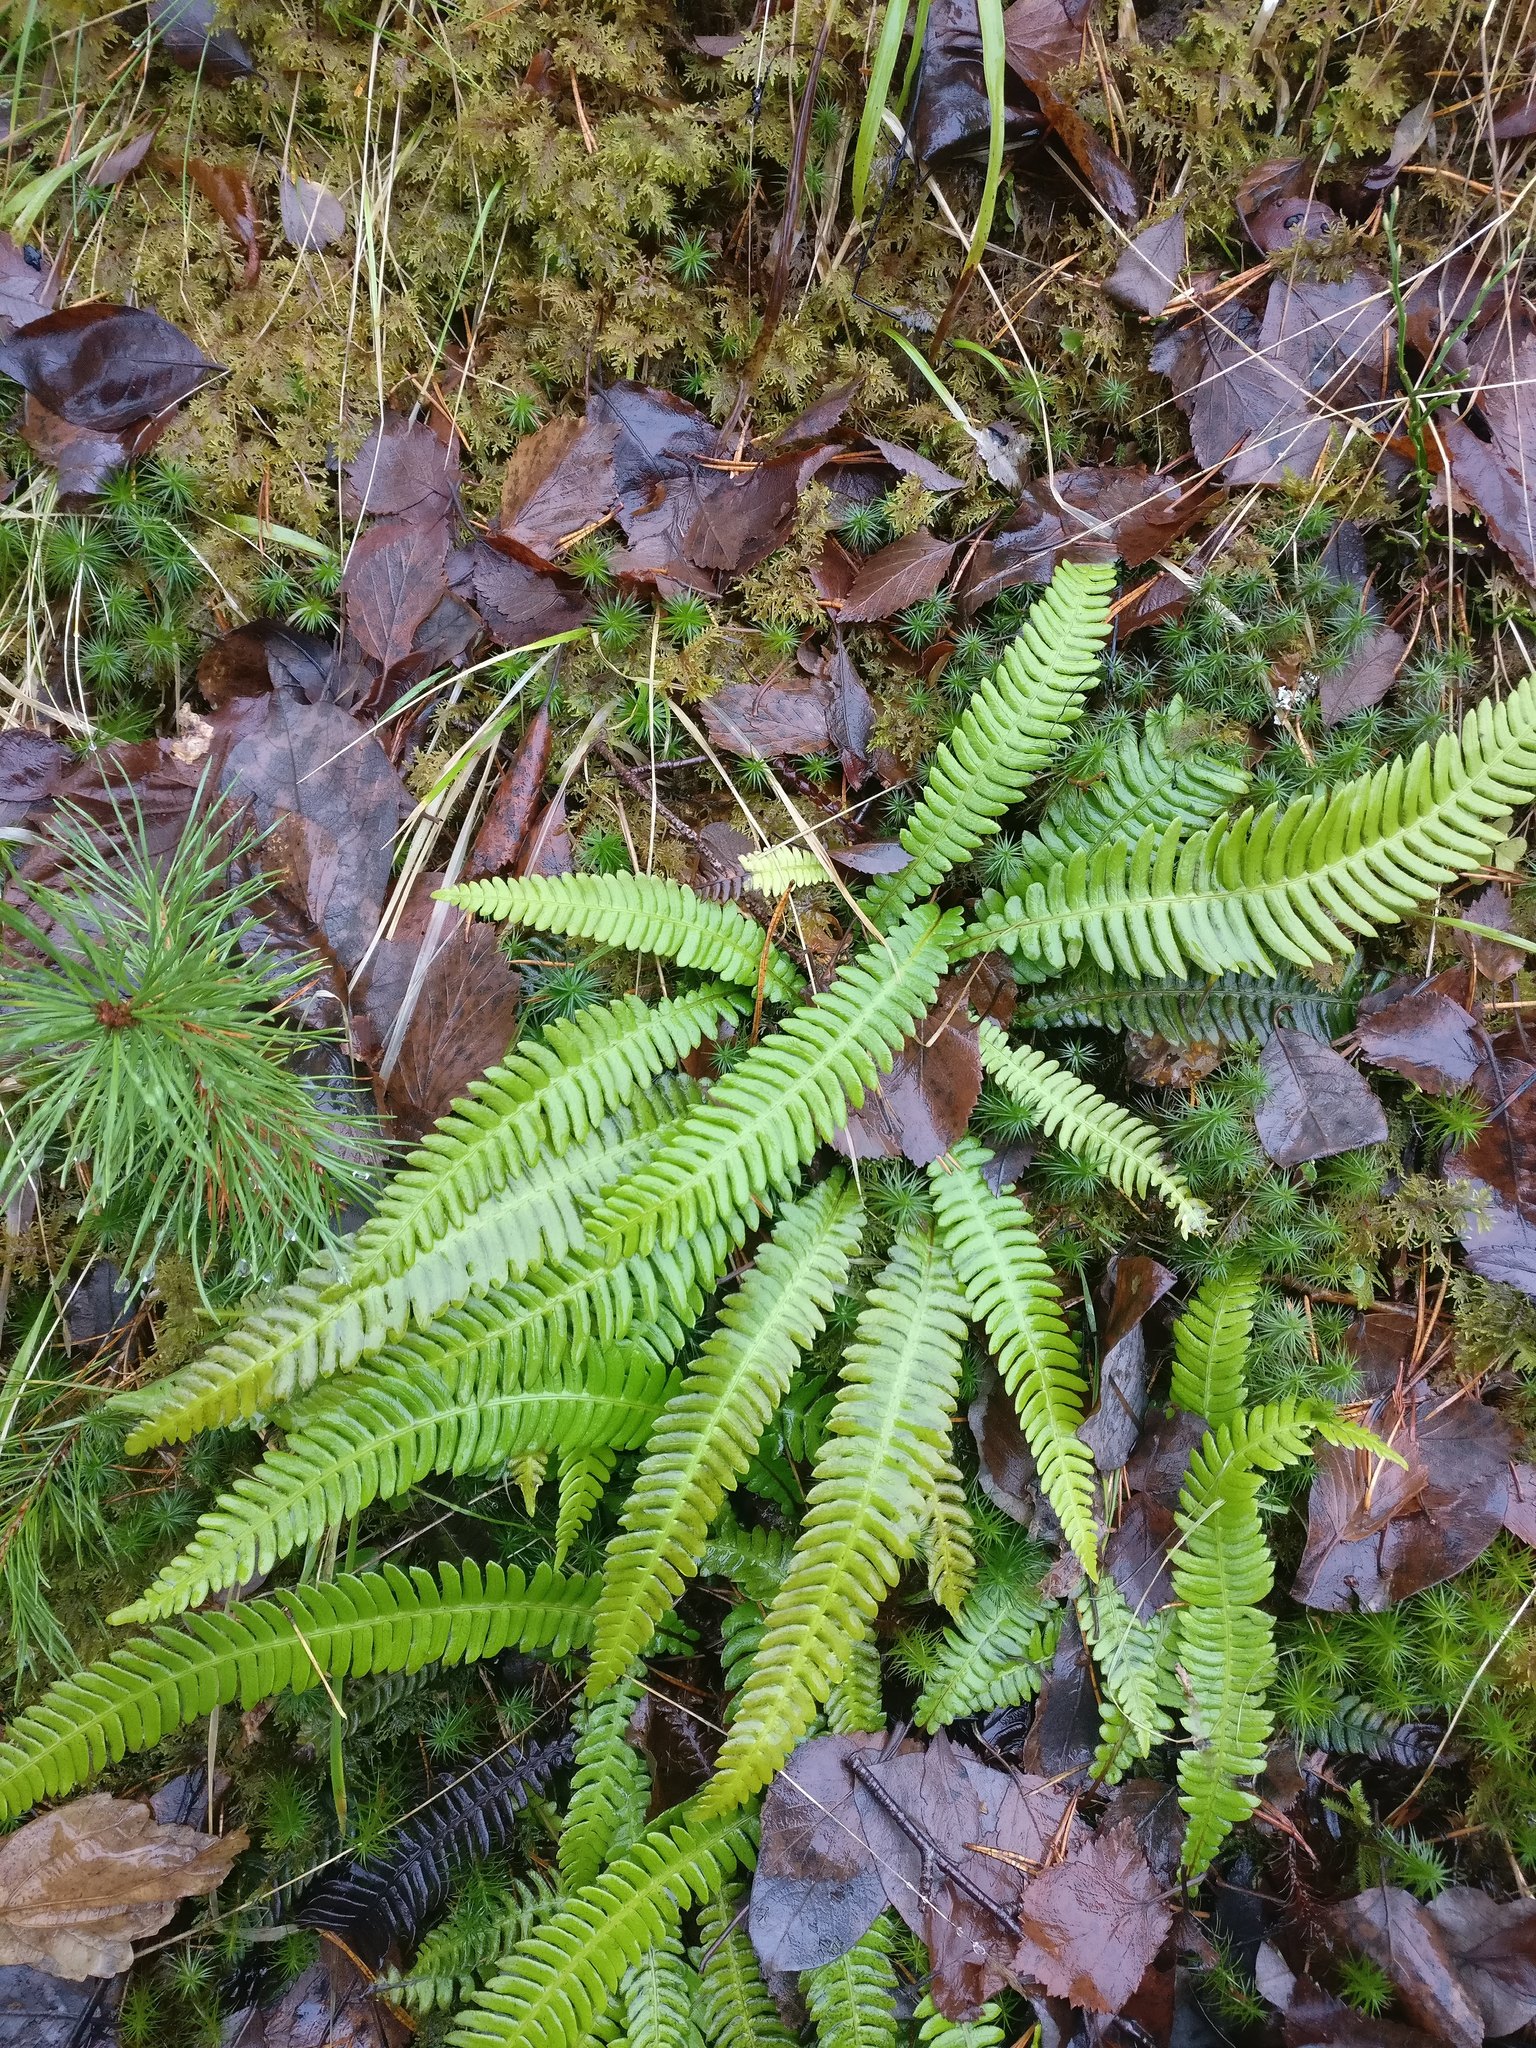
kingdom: Plantae
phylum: Tracheophyta
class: Polypodiopsida
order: Polypodiales
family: Blechnaceae
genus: Struthiopteris
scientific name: Struthiopteris spicant
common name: Deer fern
